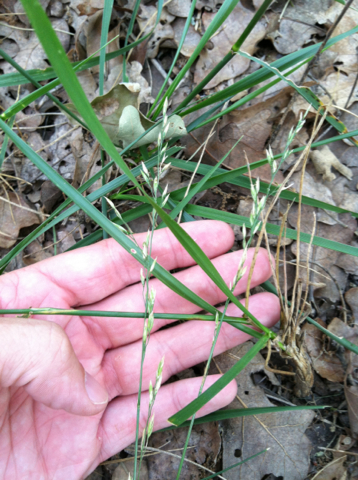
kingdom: Plantae
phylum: Tracheophyta
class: Liliopsida
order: Poales
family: Poaceae
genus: Lolium
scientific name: Lolium arundinaceum
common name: Reed fescue
